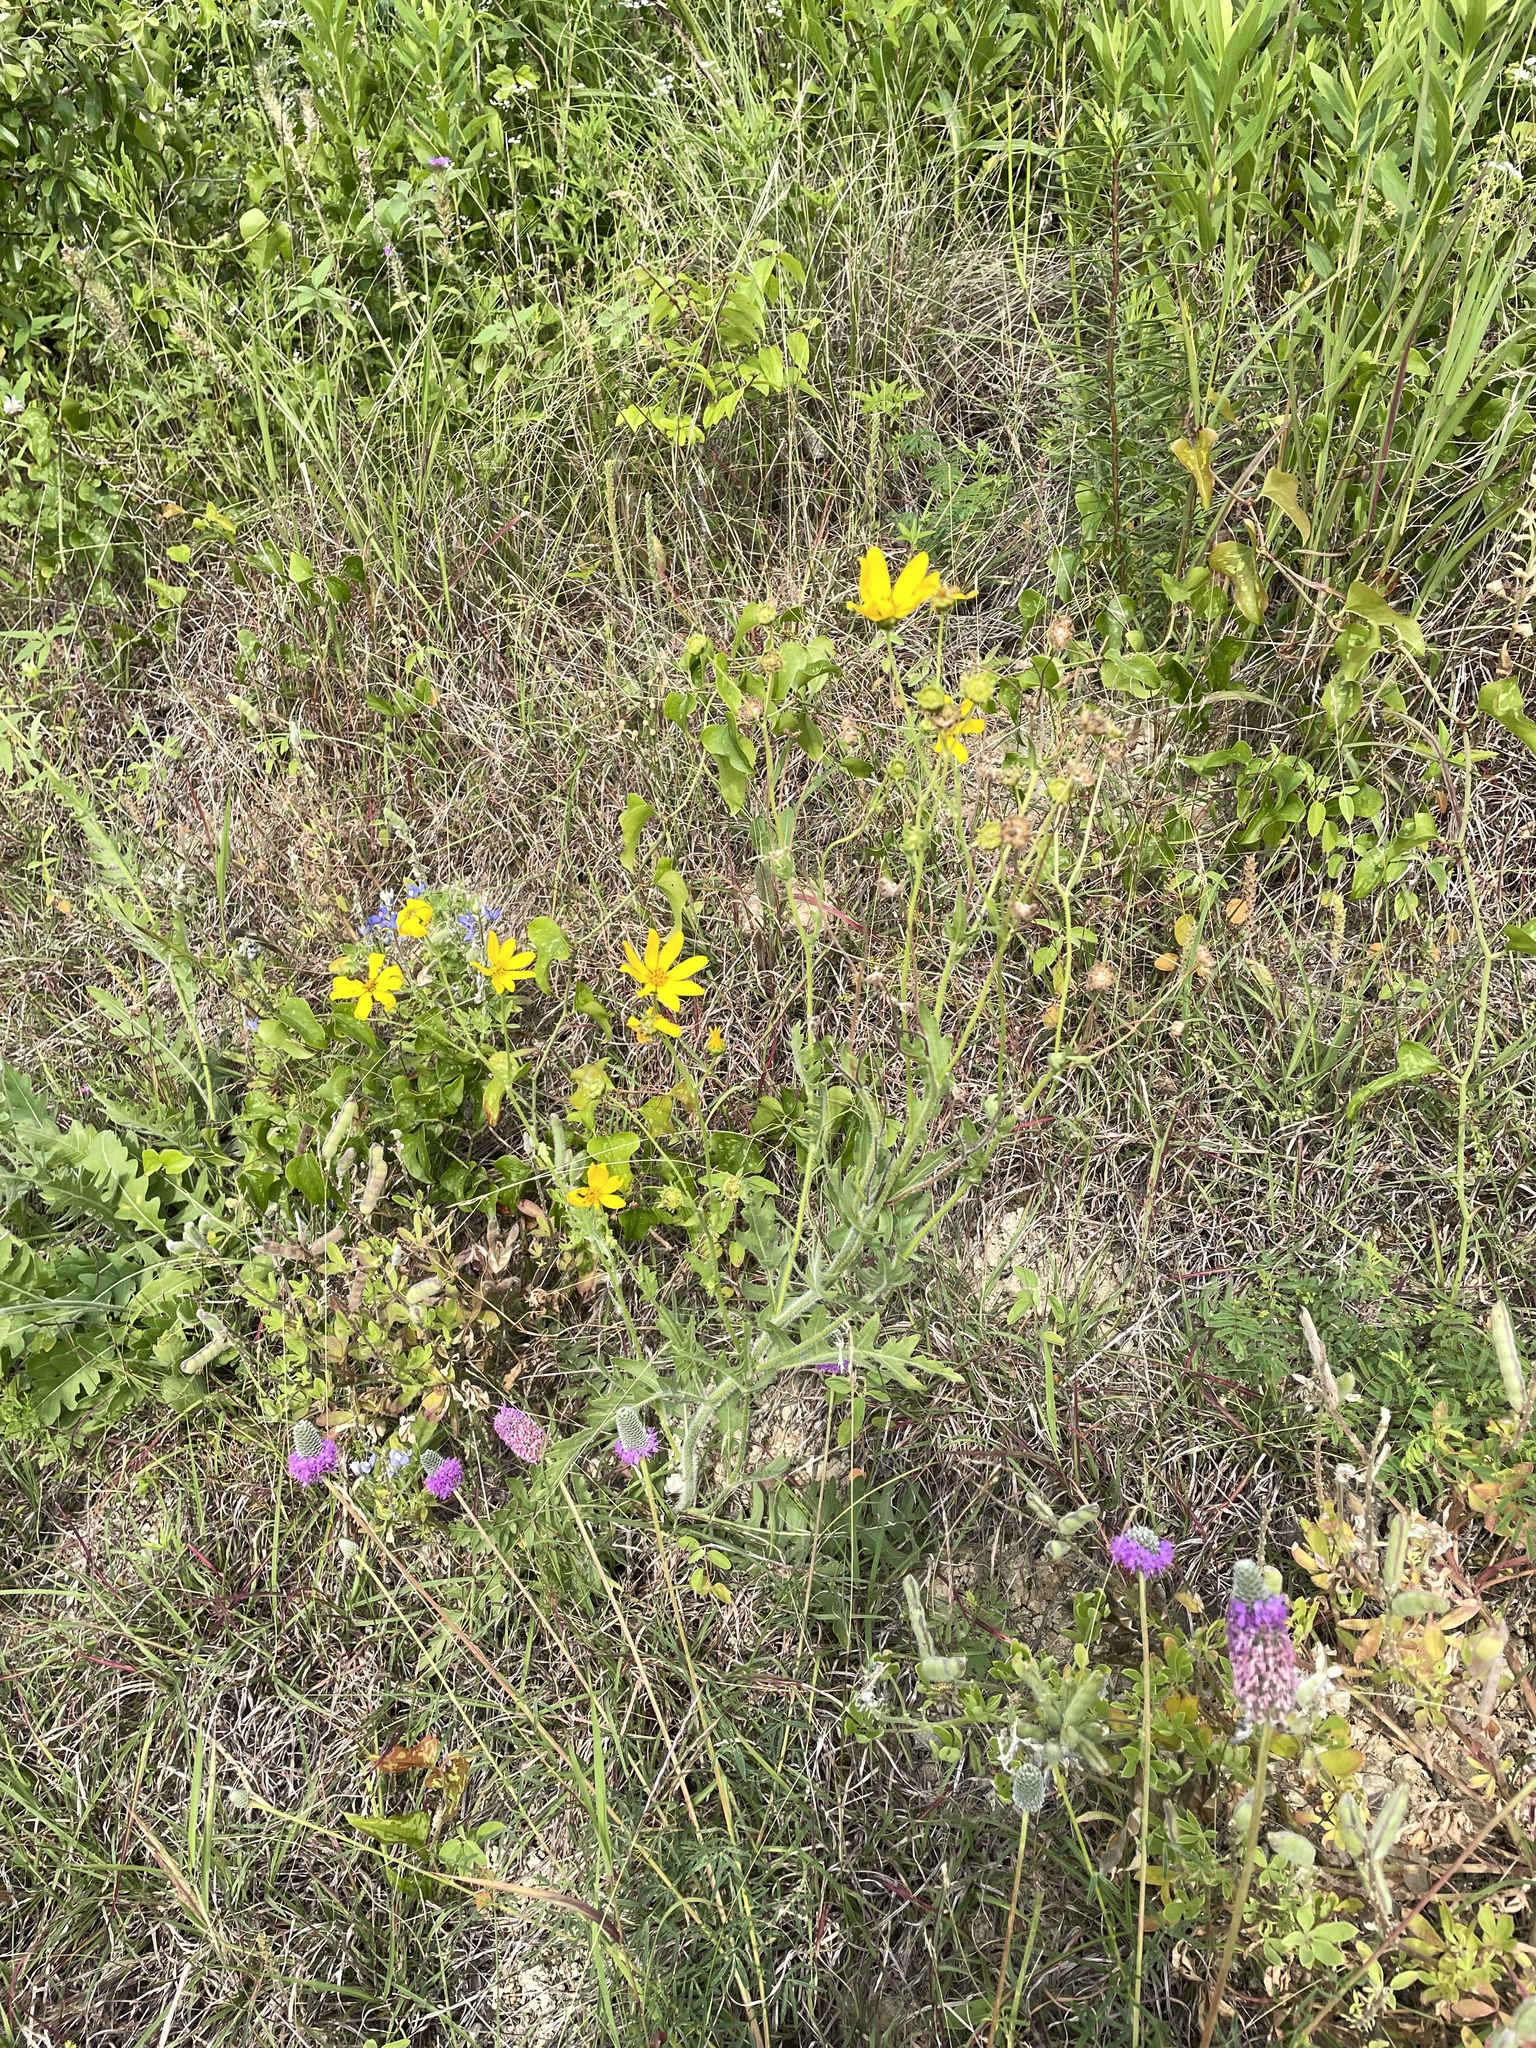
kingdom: Plantae
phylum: Tracheophyta
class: Magnoliopsida
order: Asterales
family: Asteraceae
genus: Engelmannia
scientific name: Engelmannia peristenia
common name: Engelmann's daisy
